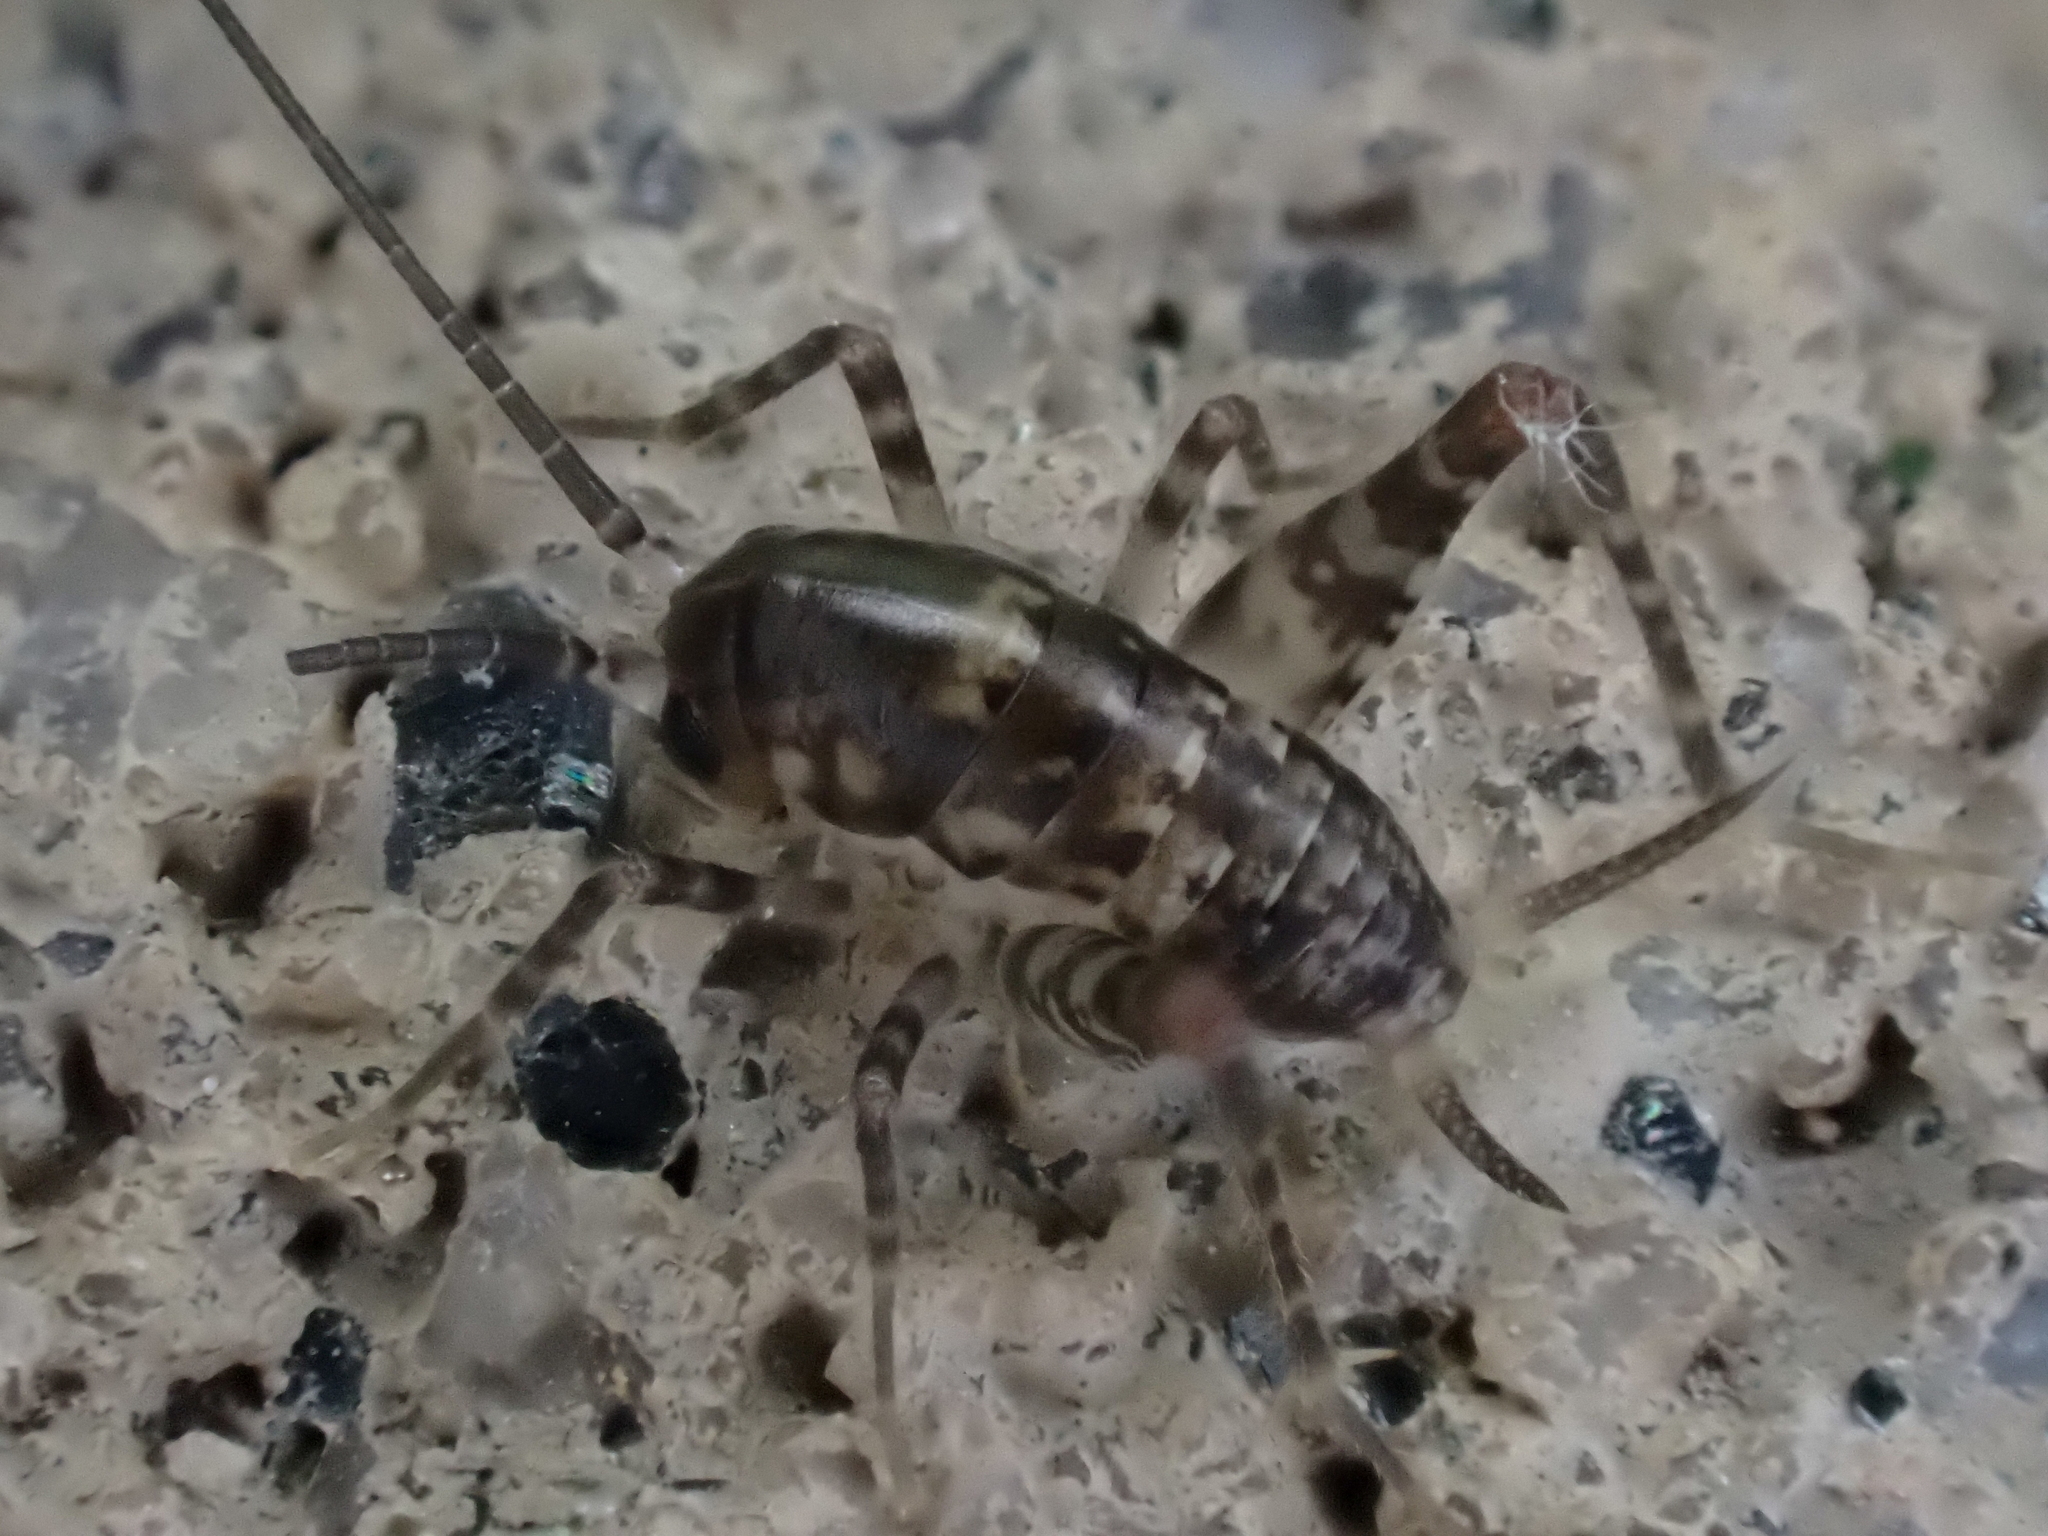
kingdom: Animalia
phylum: Arthropoda
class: Insecta
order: Orthoptera
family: Rhaphidophoridae
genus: Tachycines
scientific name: Tachycines asynamorus
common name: Greenhouse camel cricket
